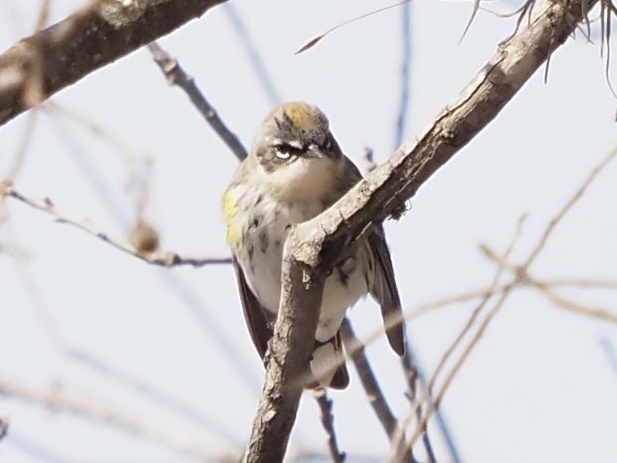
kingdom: Animalia
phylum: Chordata
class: Aves
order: Passeriformes
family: Parulidae
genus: Setophaga
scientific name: Setophaga coronata
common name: Myrtle warbler
